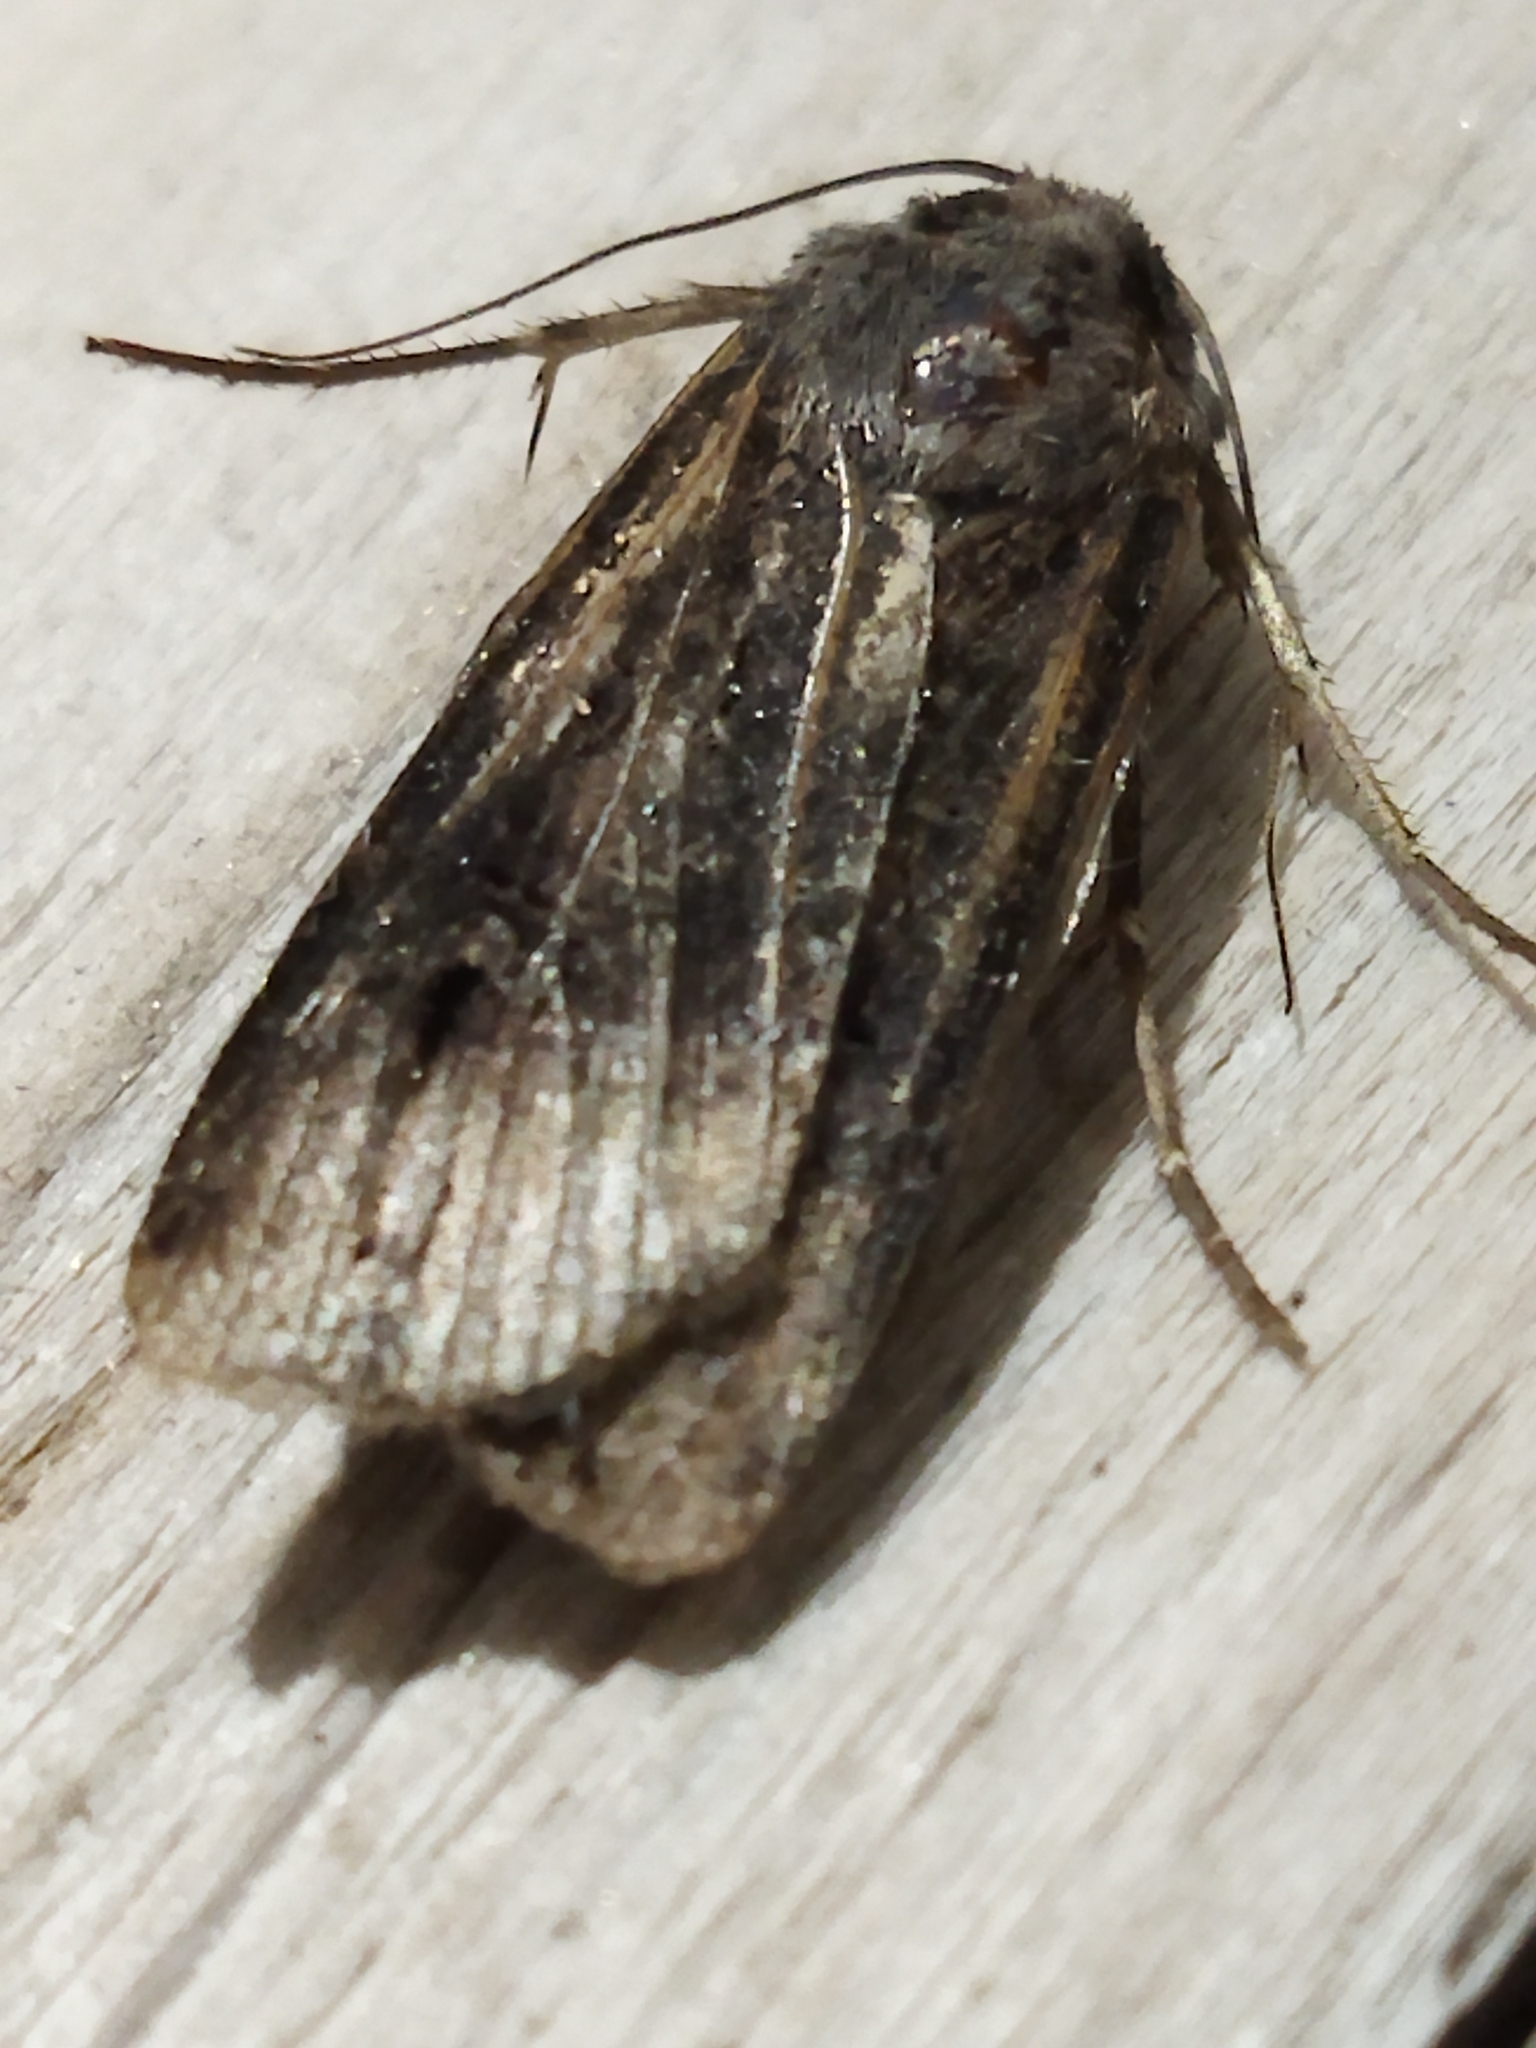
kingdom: Animalia
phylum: Arthropoda
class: Insecta
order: Lepidoptera
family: Noctuidae
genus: Agrotis
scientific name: Agrotis ipsilon
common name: Dark sword-grass
